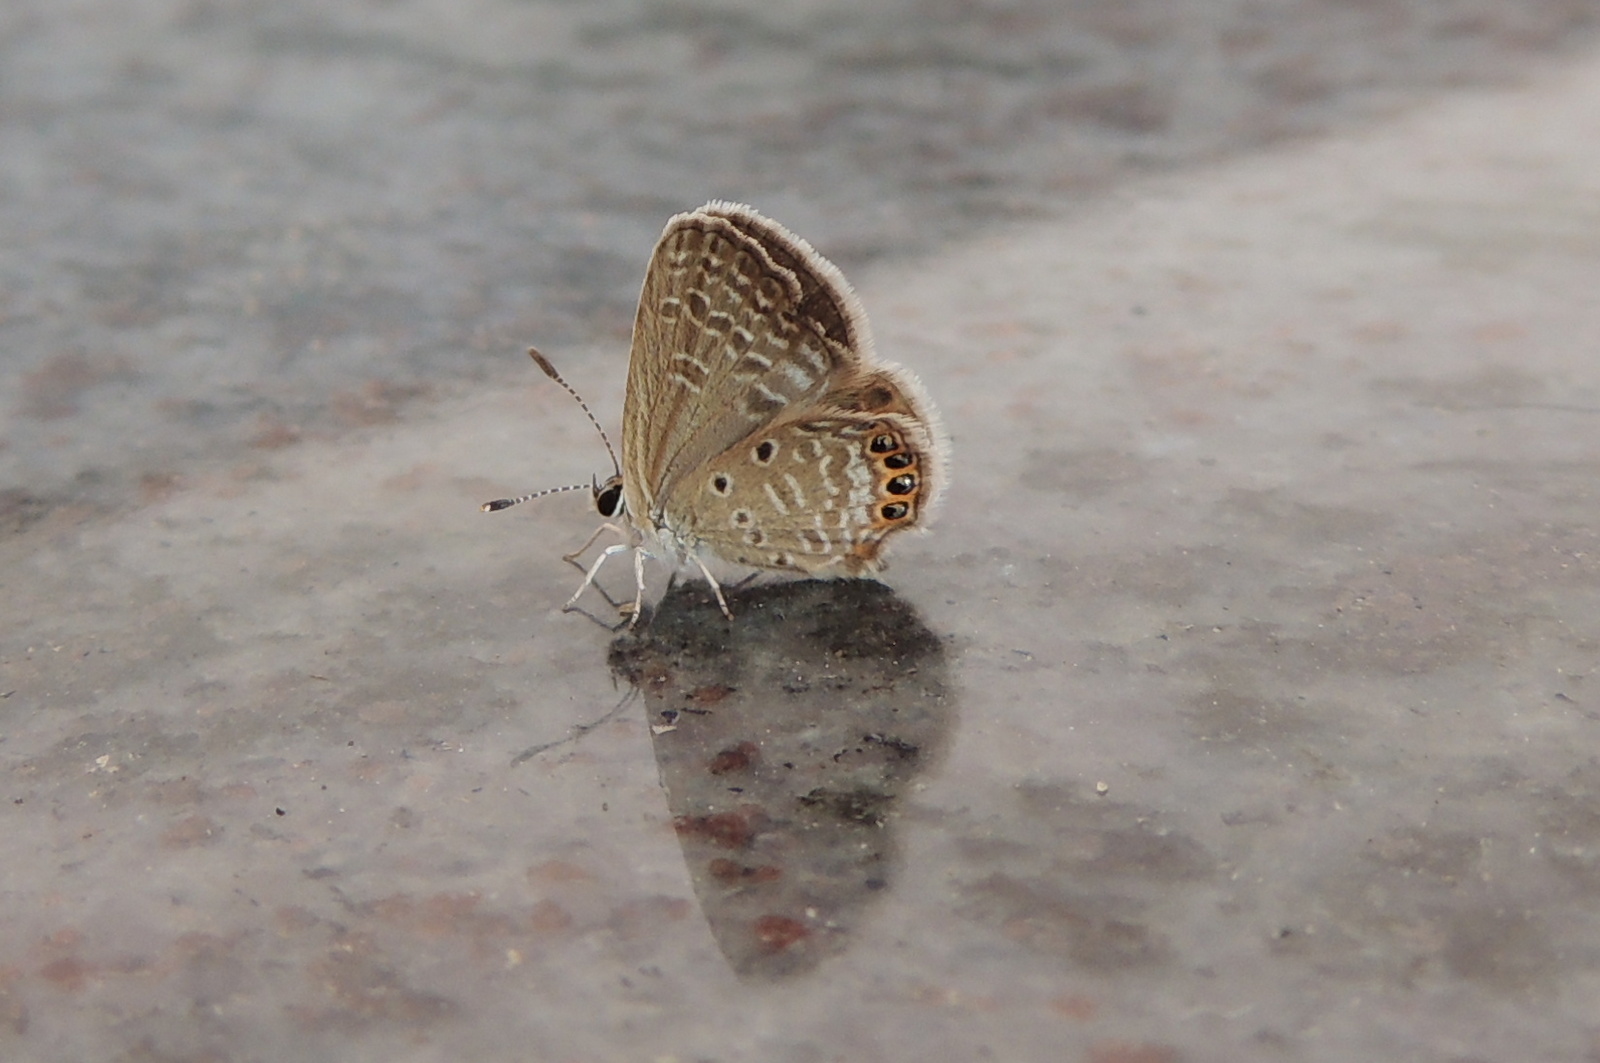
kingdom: Animalia
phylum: Arthropoda
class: Insecta
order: Lepidoptera
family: Lycaenidae
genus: Freyeria
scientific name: Freyeria putli
